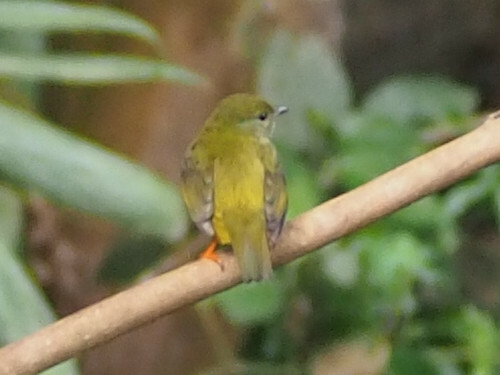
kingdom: Animalia
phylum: Chordata
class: Aves
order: Passeriformes
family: Pipridae
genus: Manacus
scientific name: Manacus candei
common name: White-collared manakin
